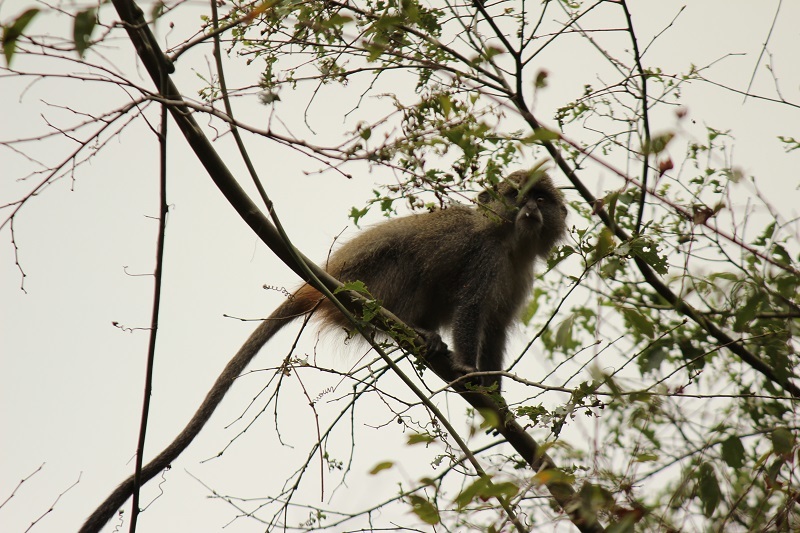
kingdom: Animalia
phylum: Chordata
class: Mammalia
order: Primates
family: Cercopithecidae
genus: Cercopithecus
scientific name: Cercopithecus mitis
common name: Blue monkey
